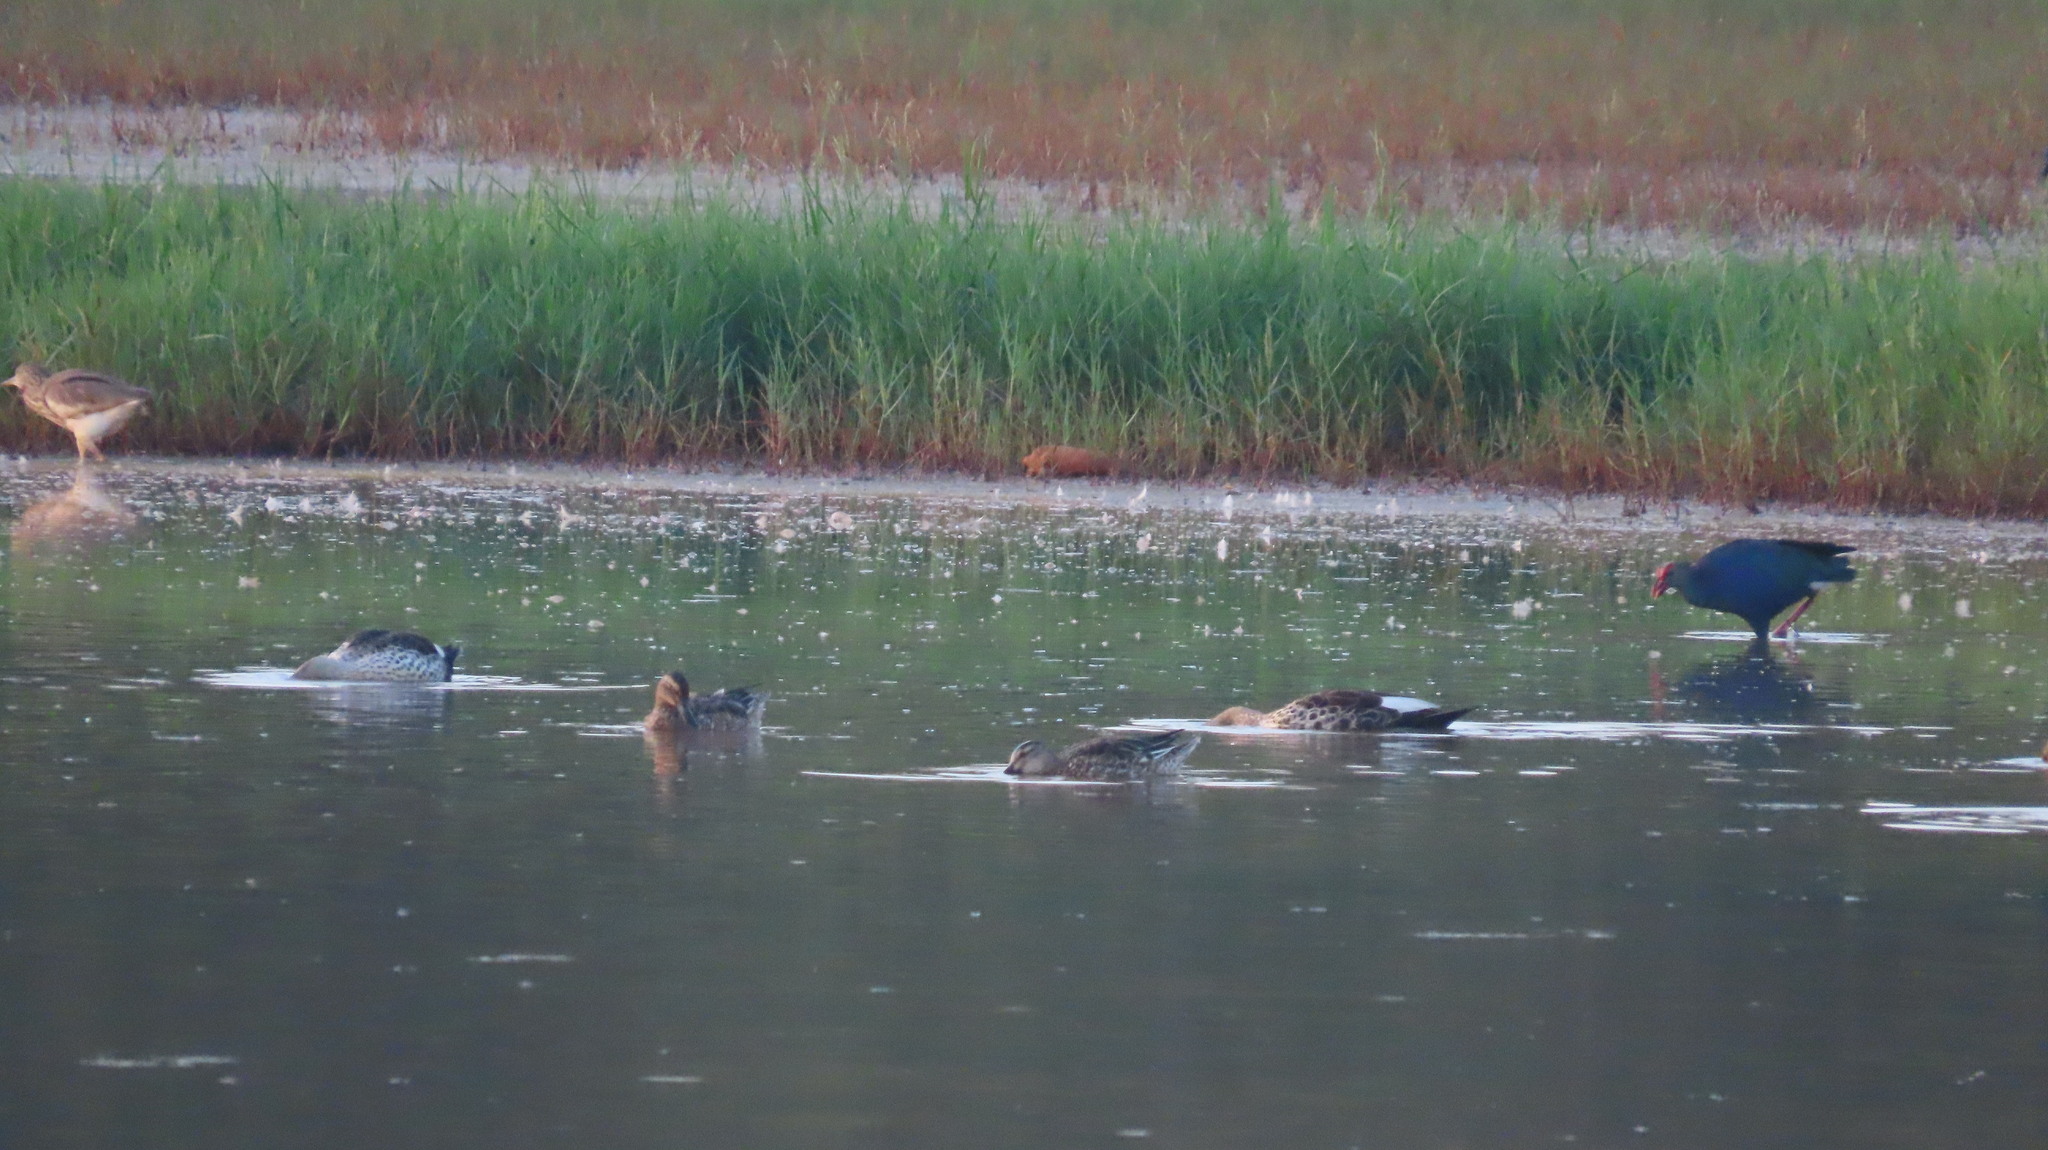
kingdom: Animalia
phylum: Chordata
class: Aves
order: Anseriformes
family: Anatidae
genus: Spatula
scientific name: Spatula querquedula
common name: Garganey
